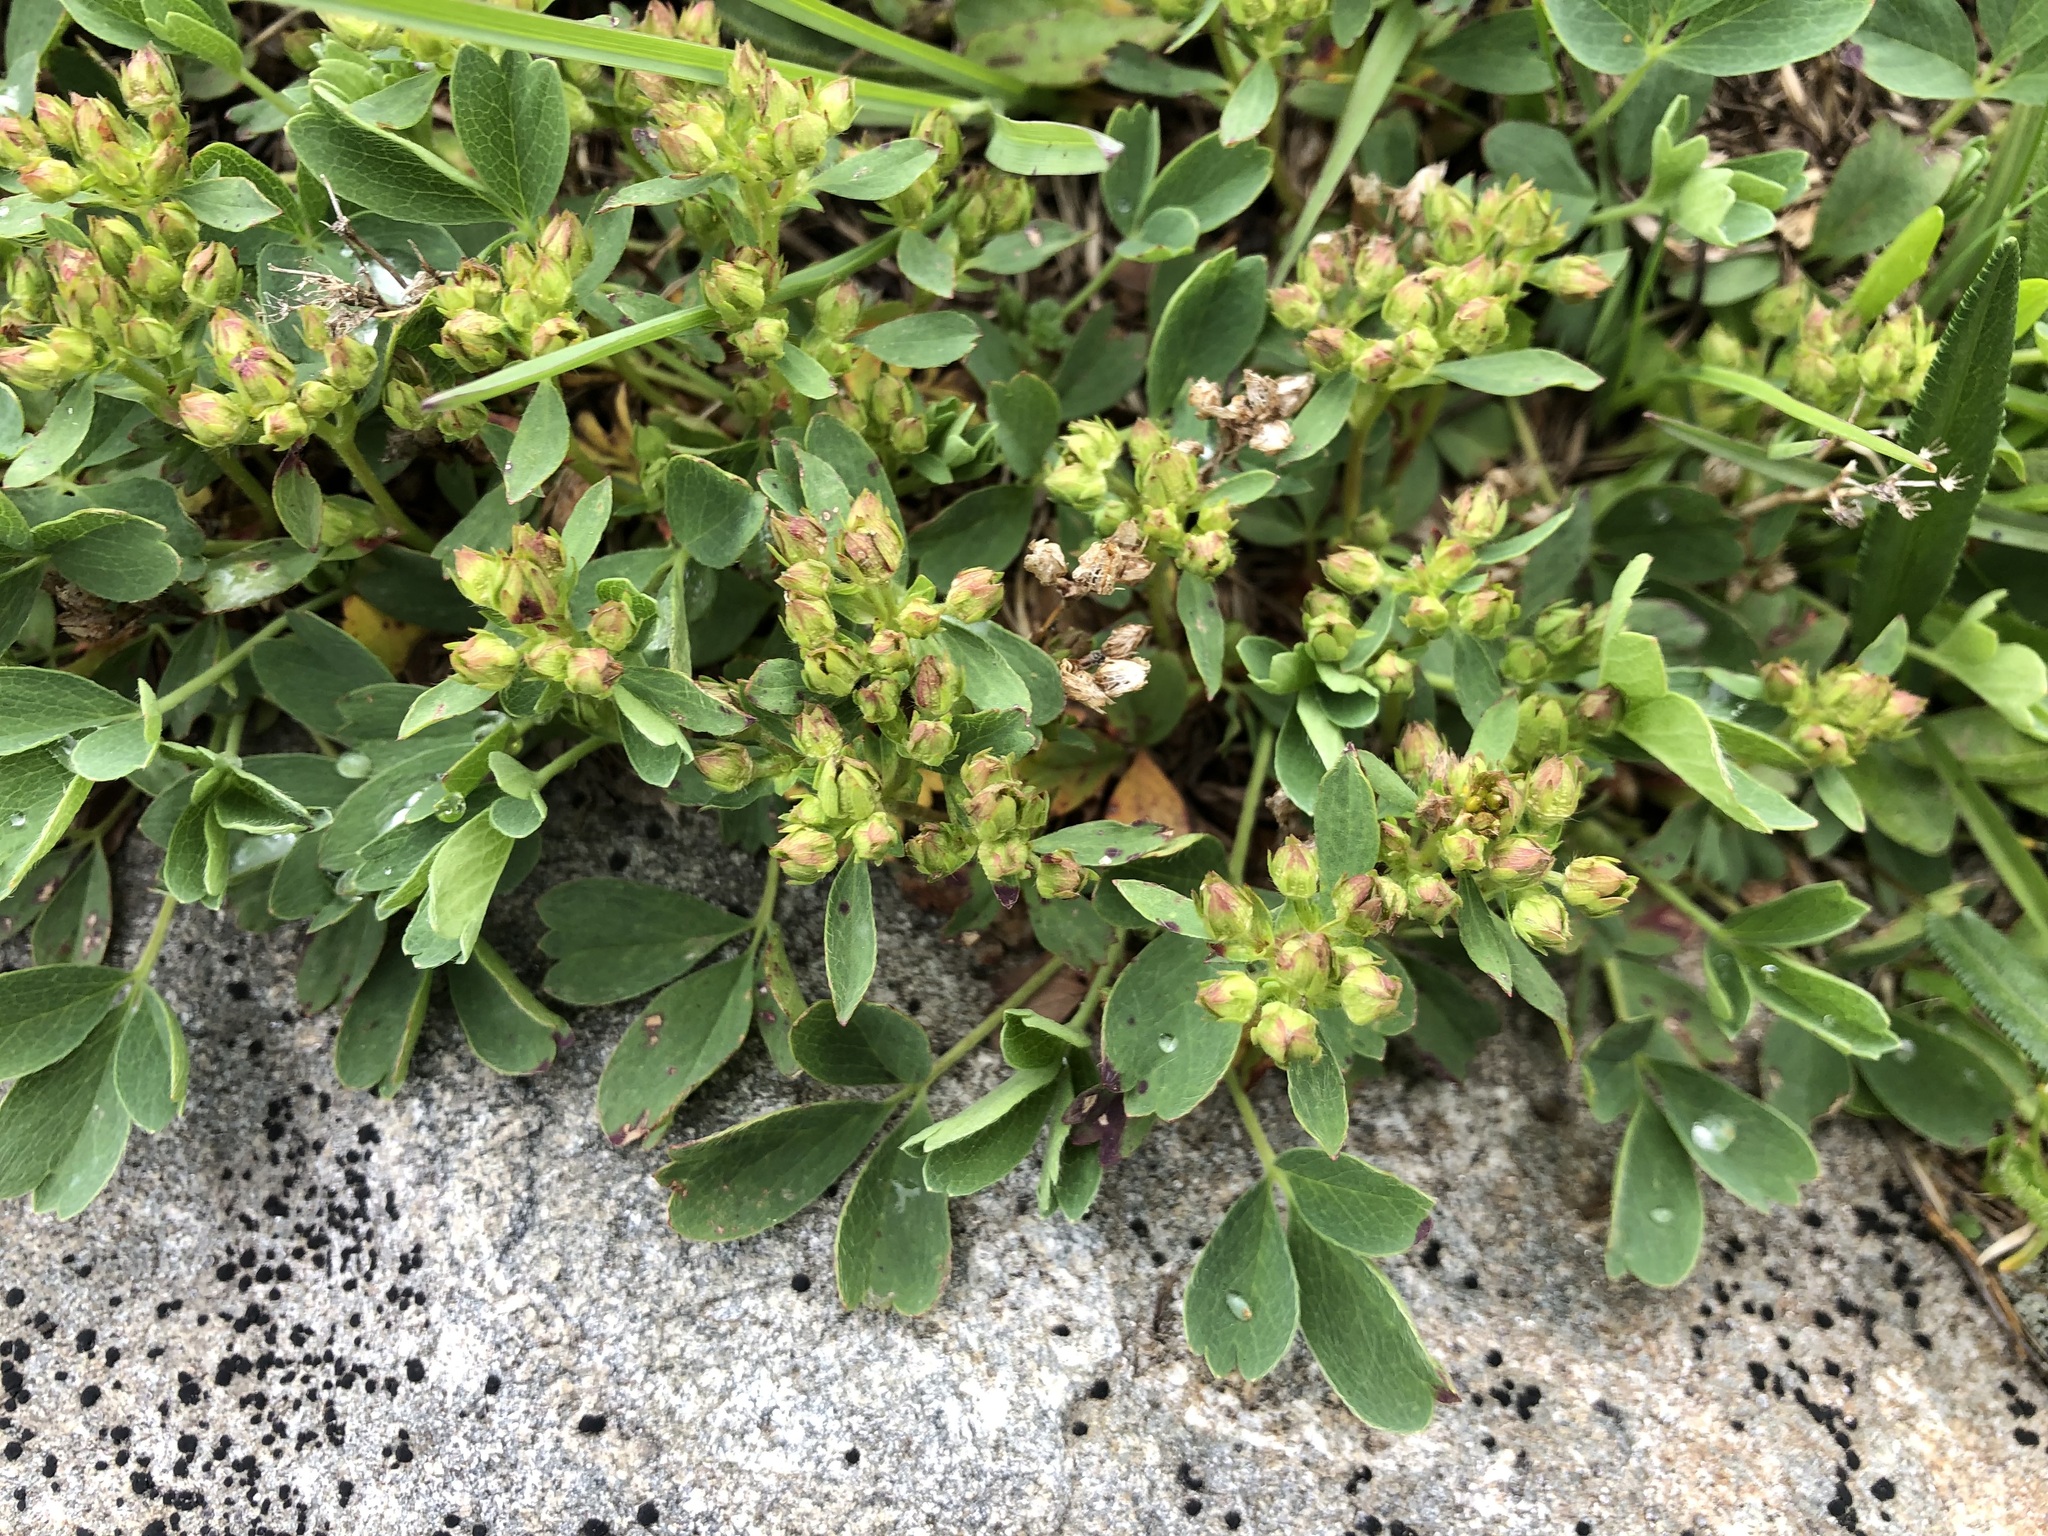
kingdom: Plantae
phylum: Tracheophyta
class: Magnoliopsida
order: Rosales
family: Rosaceae
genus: Sibbaldia
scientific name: Sibbaldia procumbens
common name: Creeping sibbaldia
